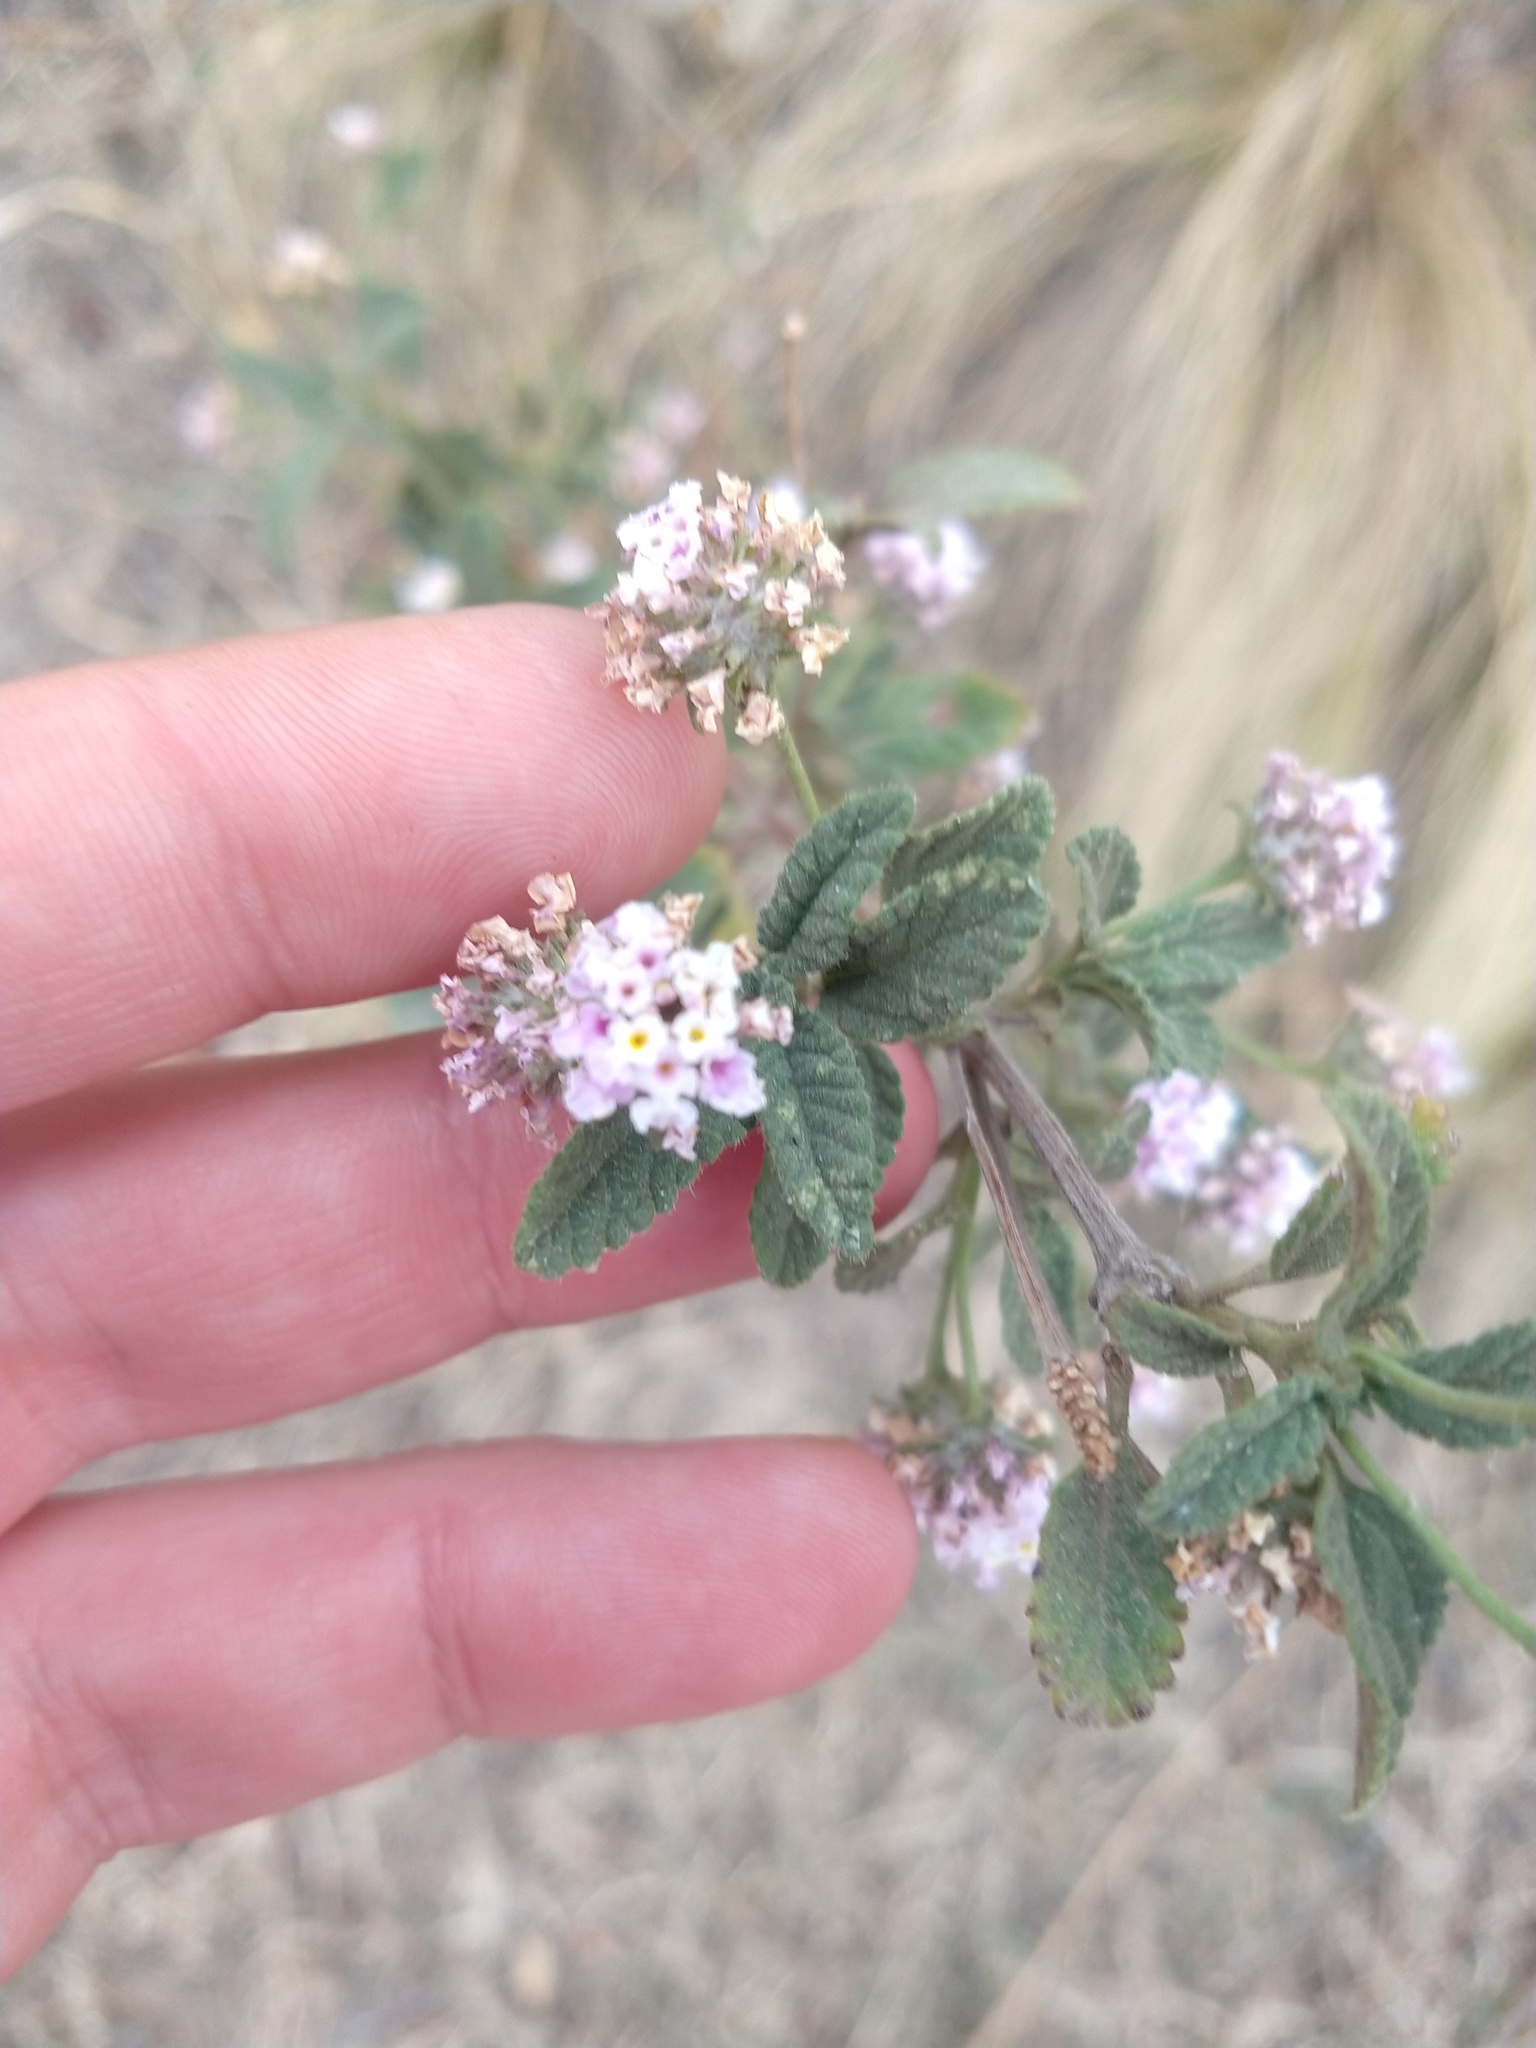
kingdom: Plantae
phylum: Tracheophyta
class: Magnoliopsida
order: Lamiales
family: Verbenaceae
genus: Lantana
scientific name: Lantana balansae
